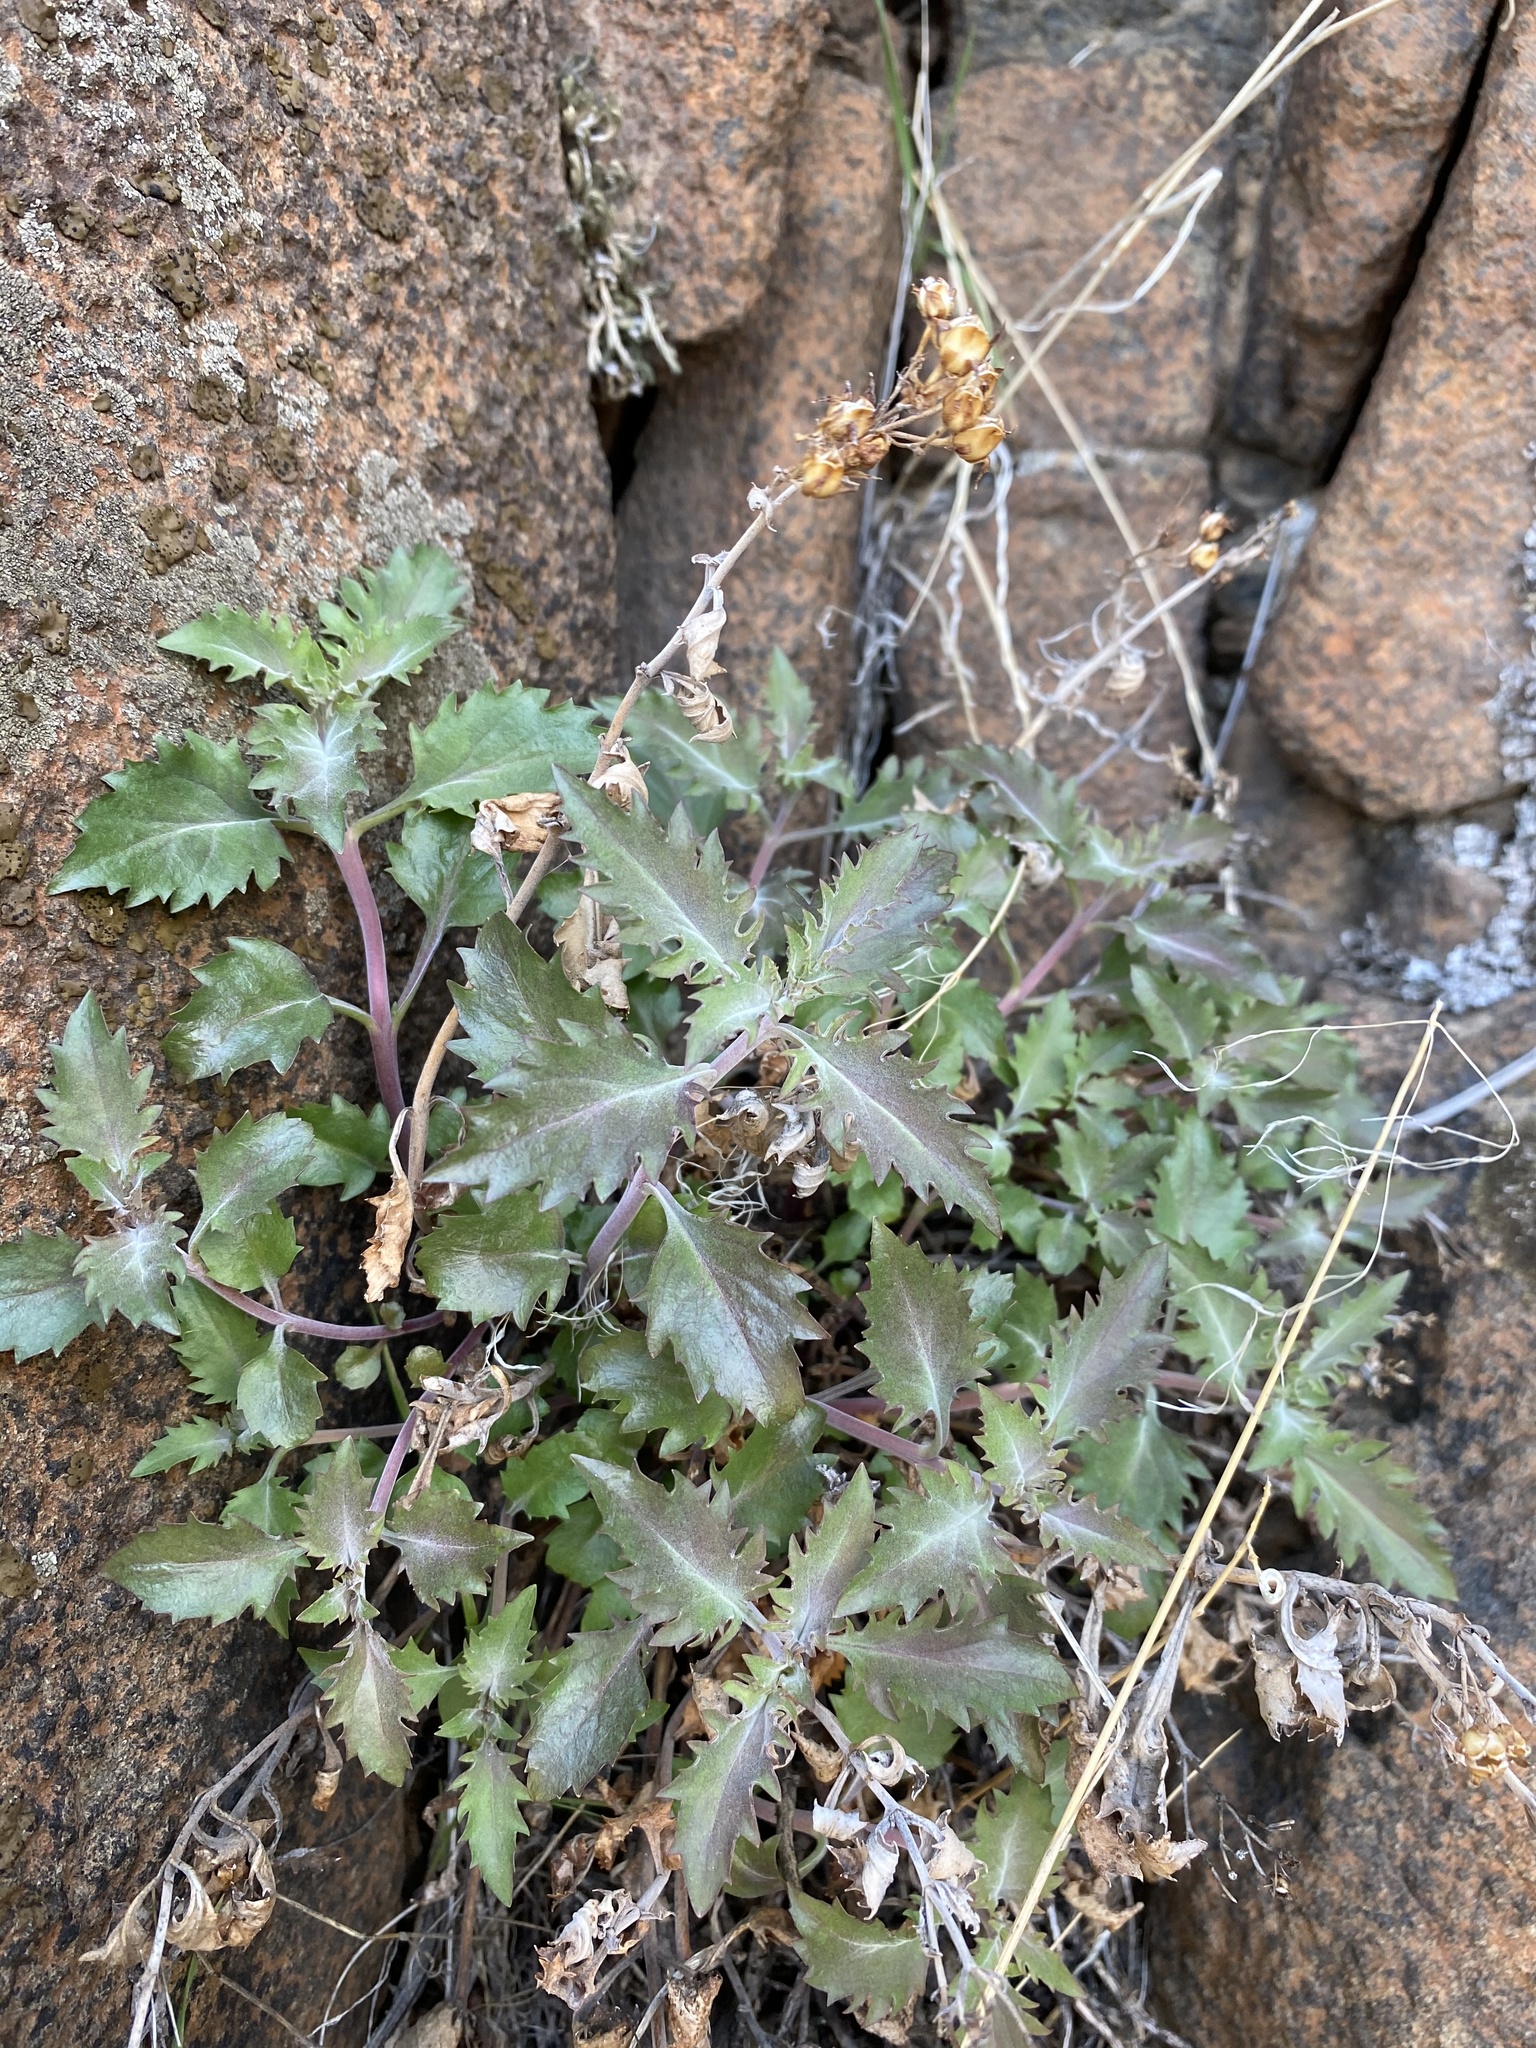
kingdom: Plantae
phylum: Tracheophyta
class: Magnoliopsida
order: Lamiales
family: Plantaginaceae
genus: Penstemon
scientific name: Penstemon richardsonii
